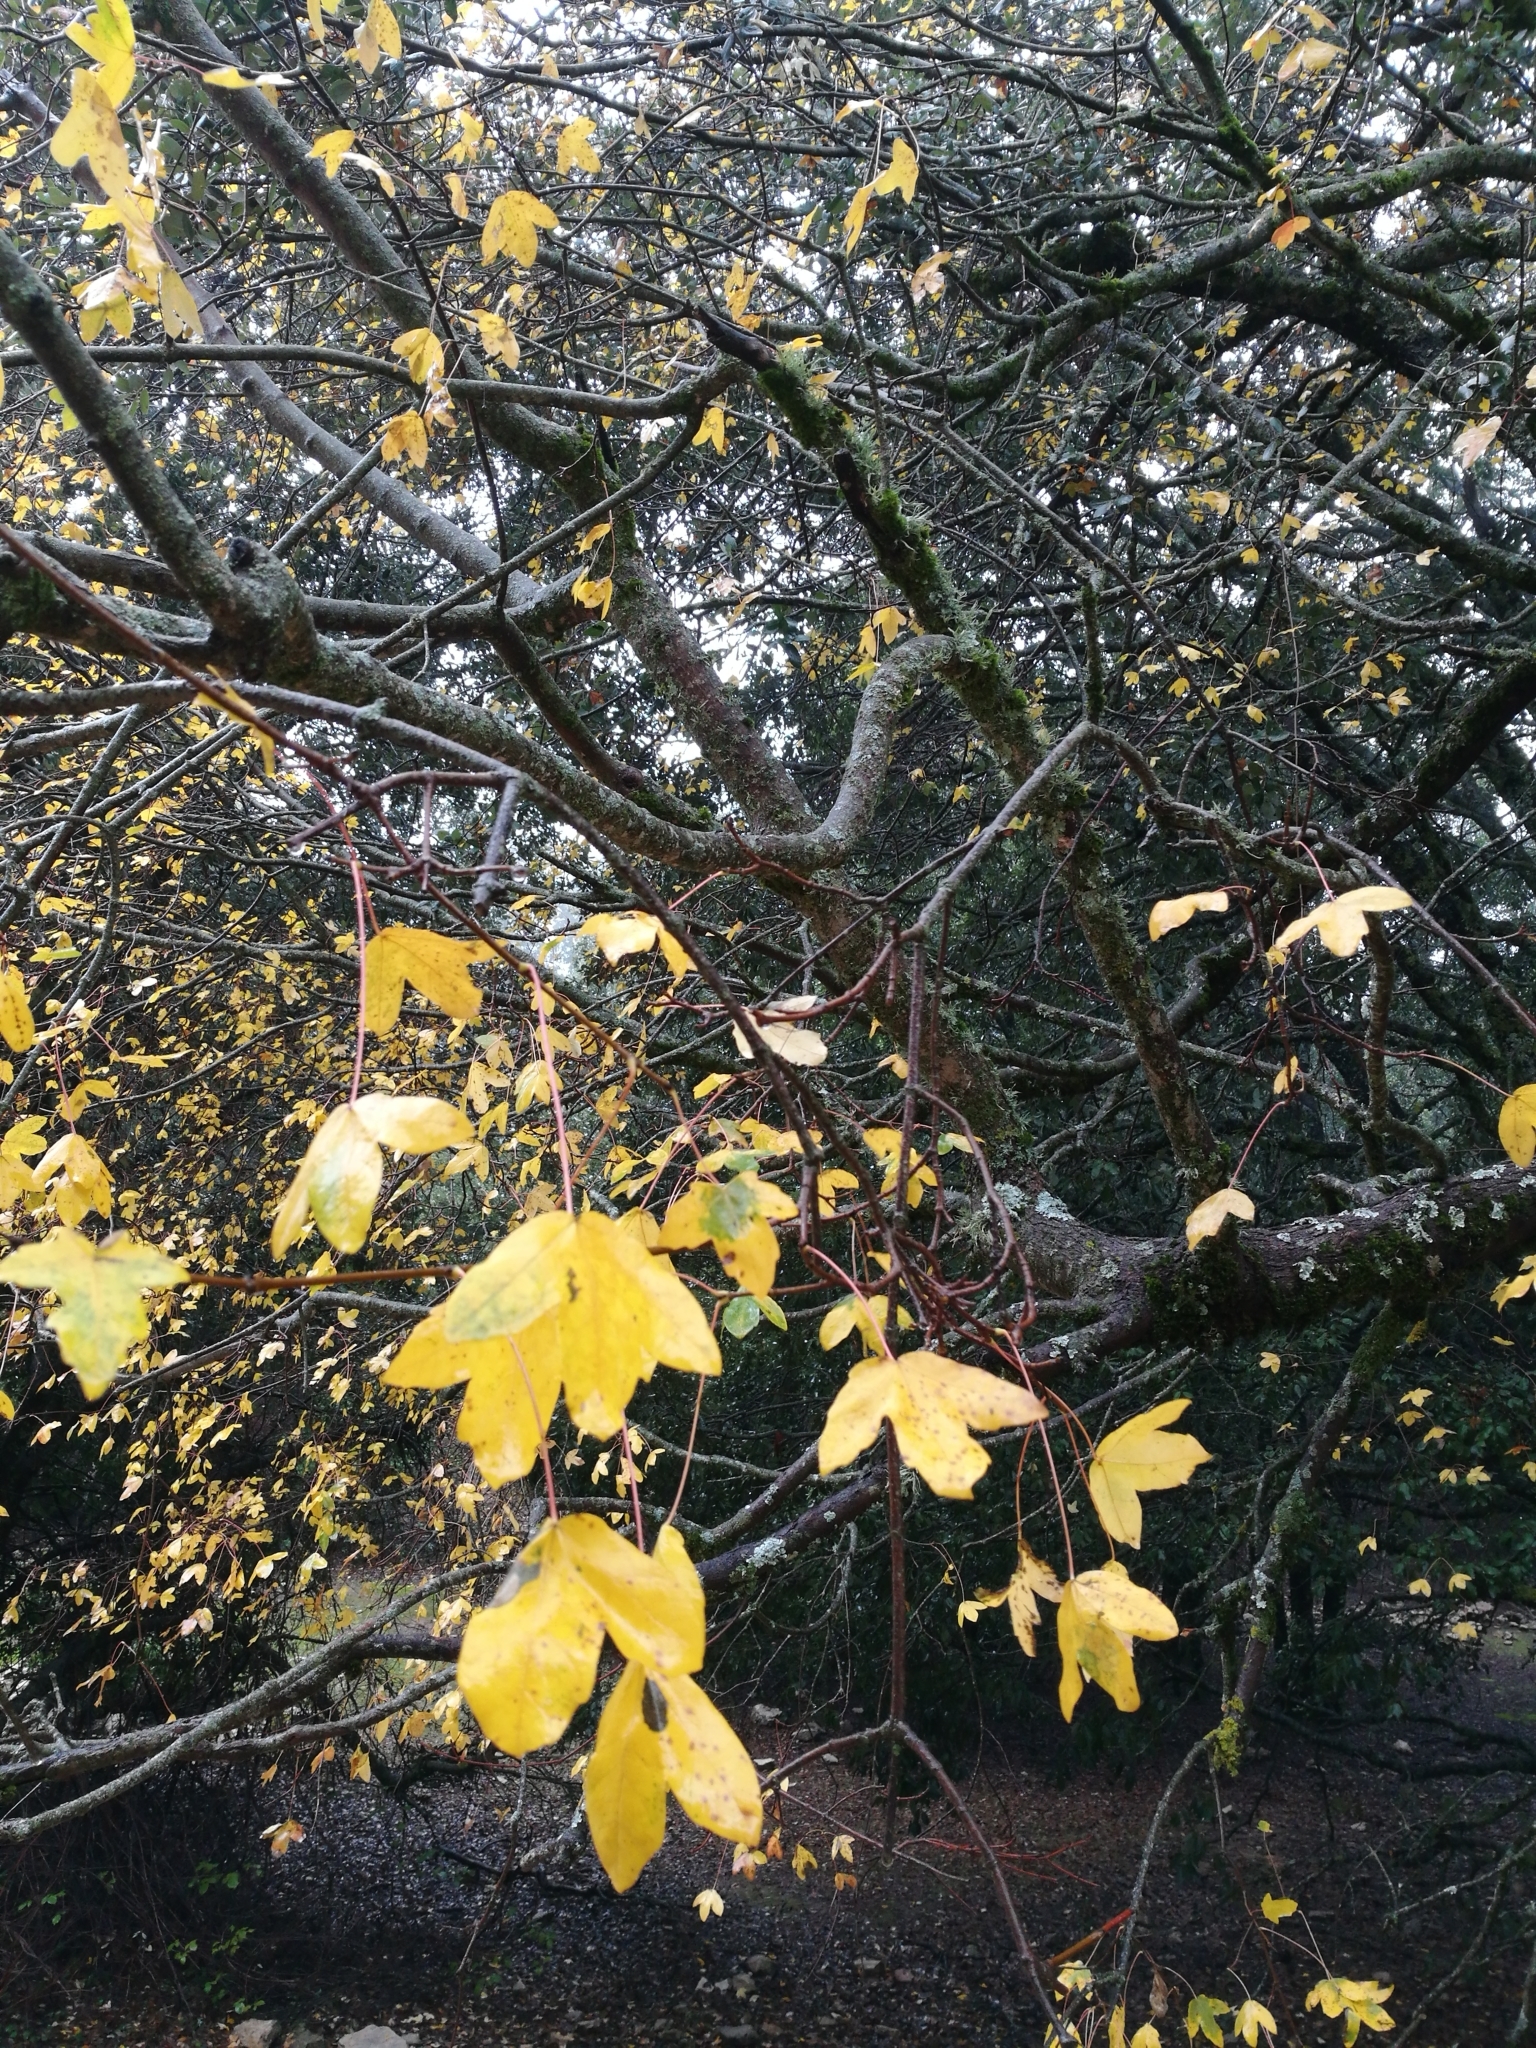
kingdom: Plantae
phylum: Tracheophyta
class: Magnoliopsida
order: Sapindales
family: Sapindaceae
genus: Acer
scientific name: Acer monspessulanum
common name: Montpellier maple
